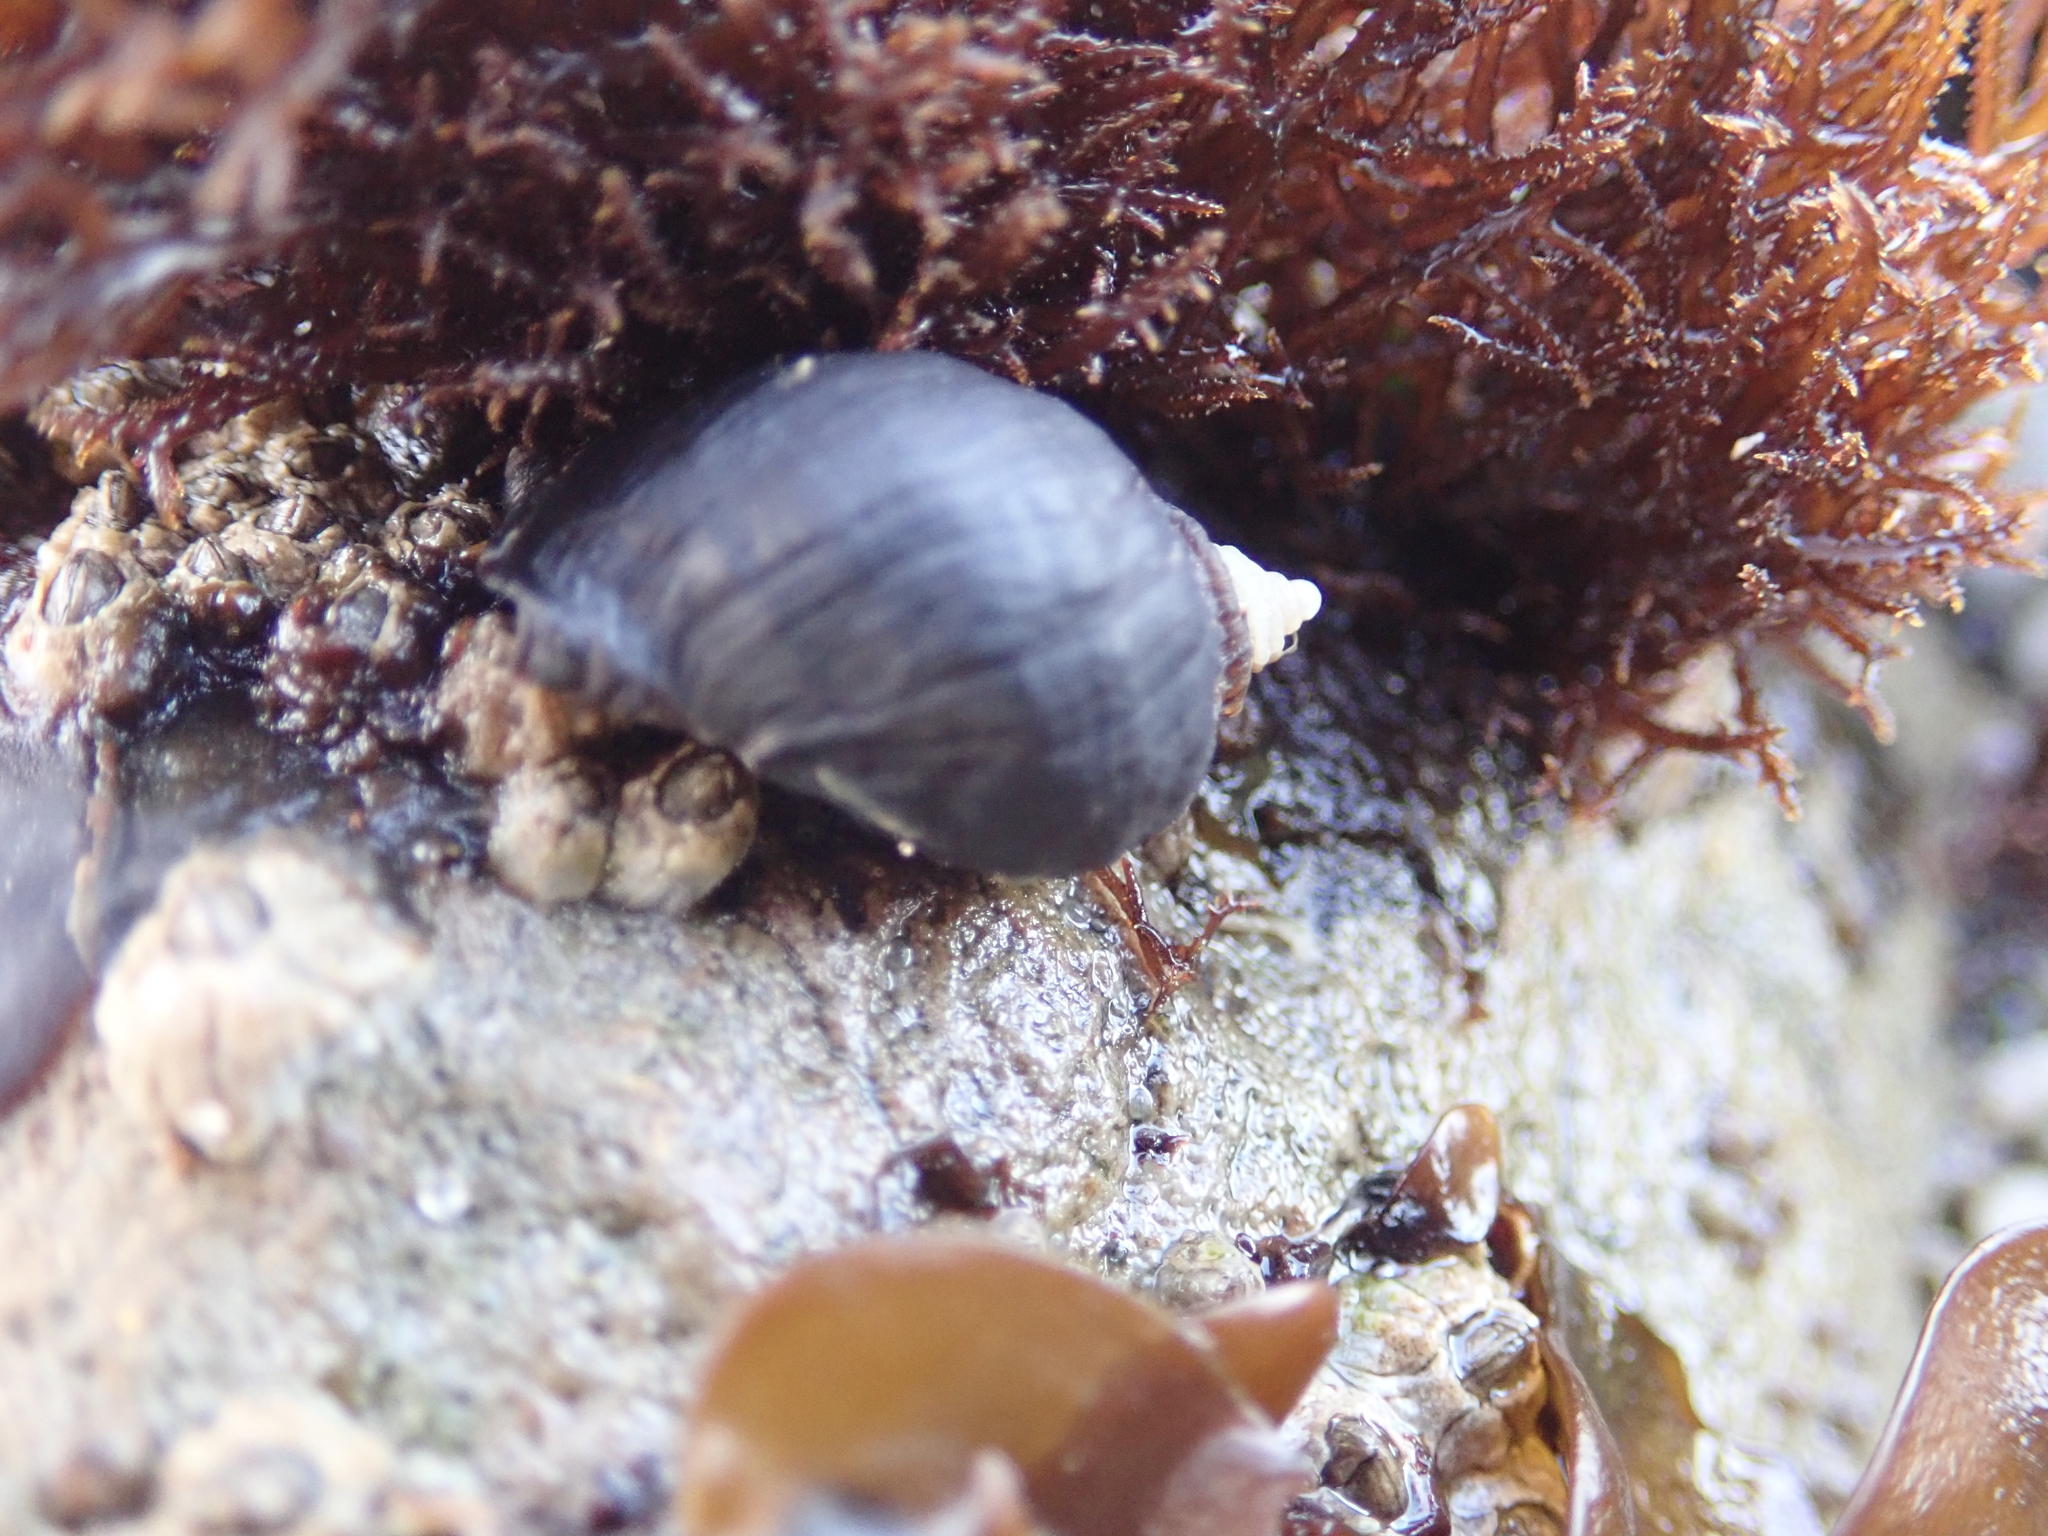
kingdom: Animalia
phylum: Mollusca
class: Gastropoda
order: Neogastropoda
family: Muricidae
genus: Nucella
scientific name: Nucella ostrina
